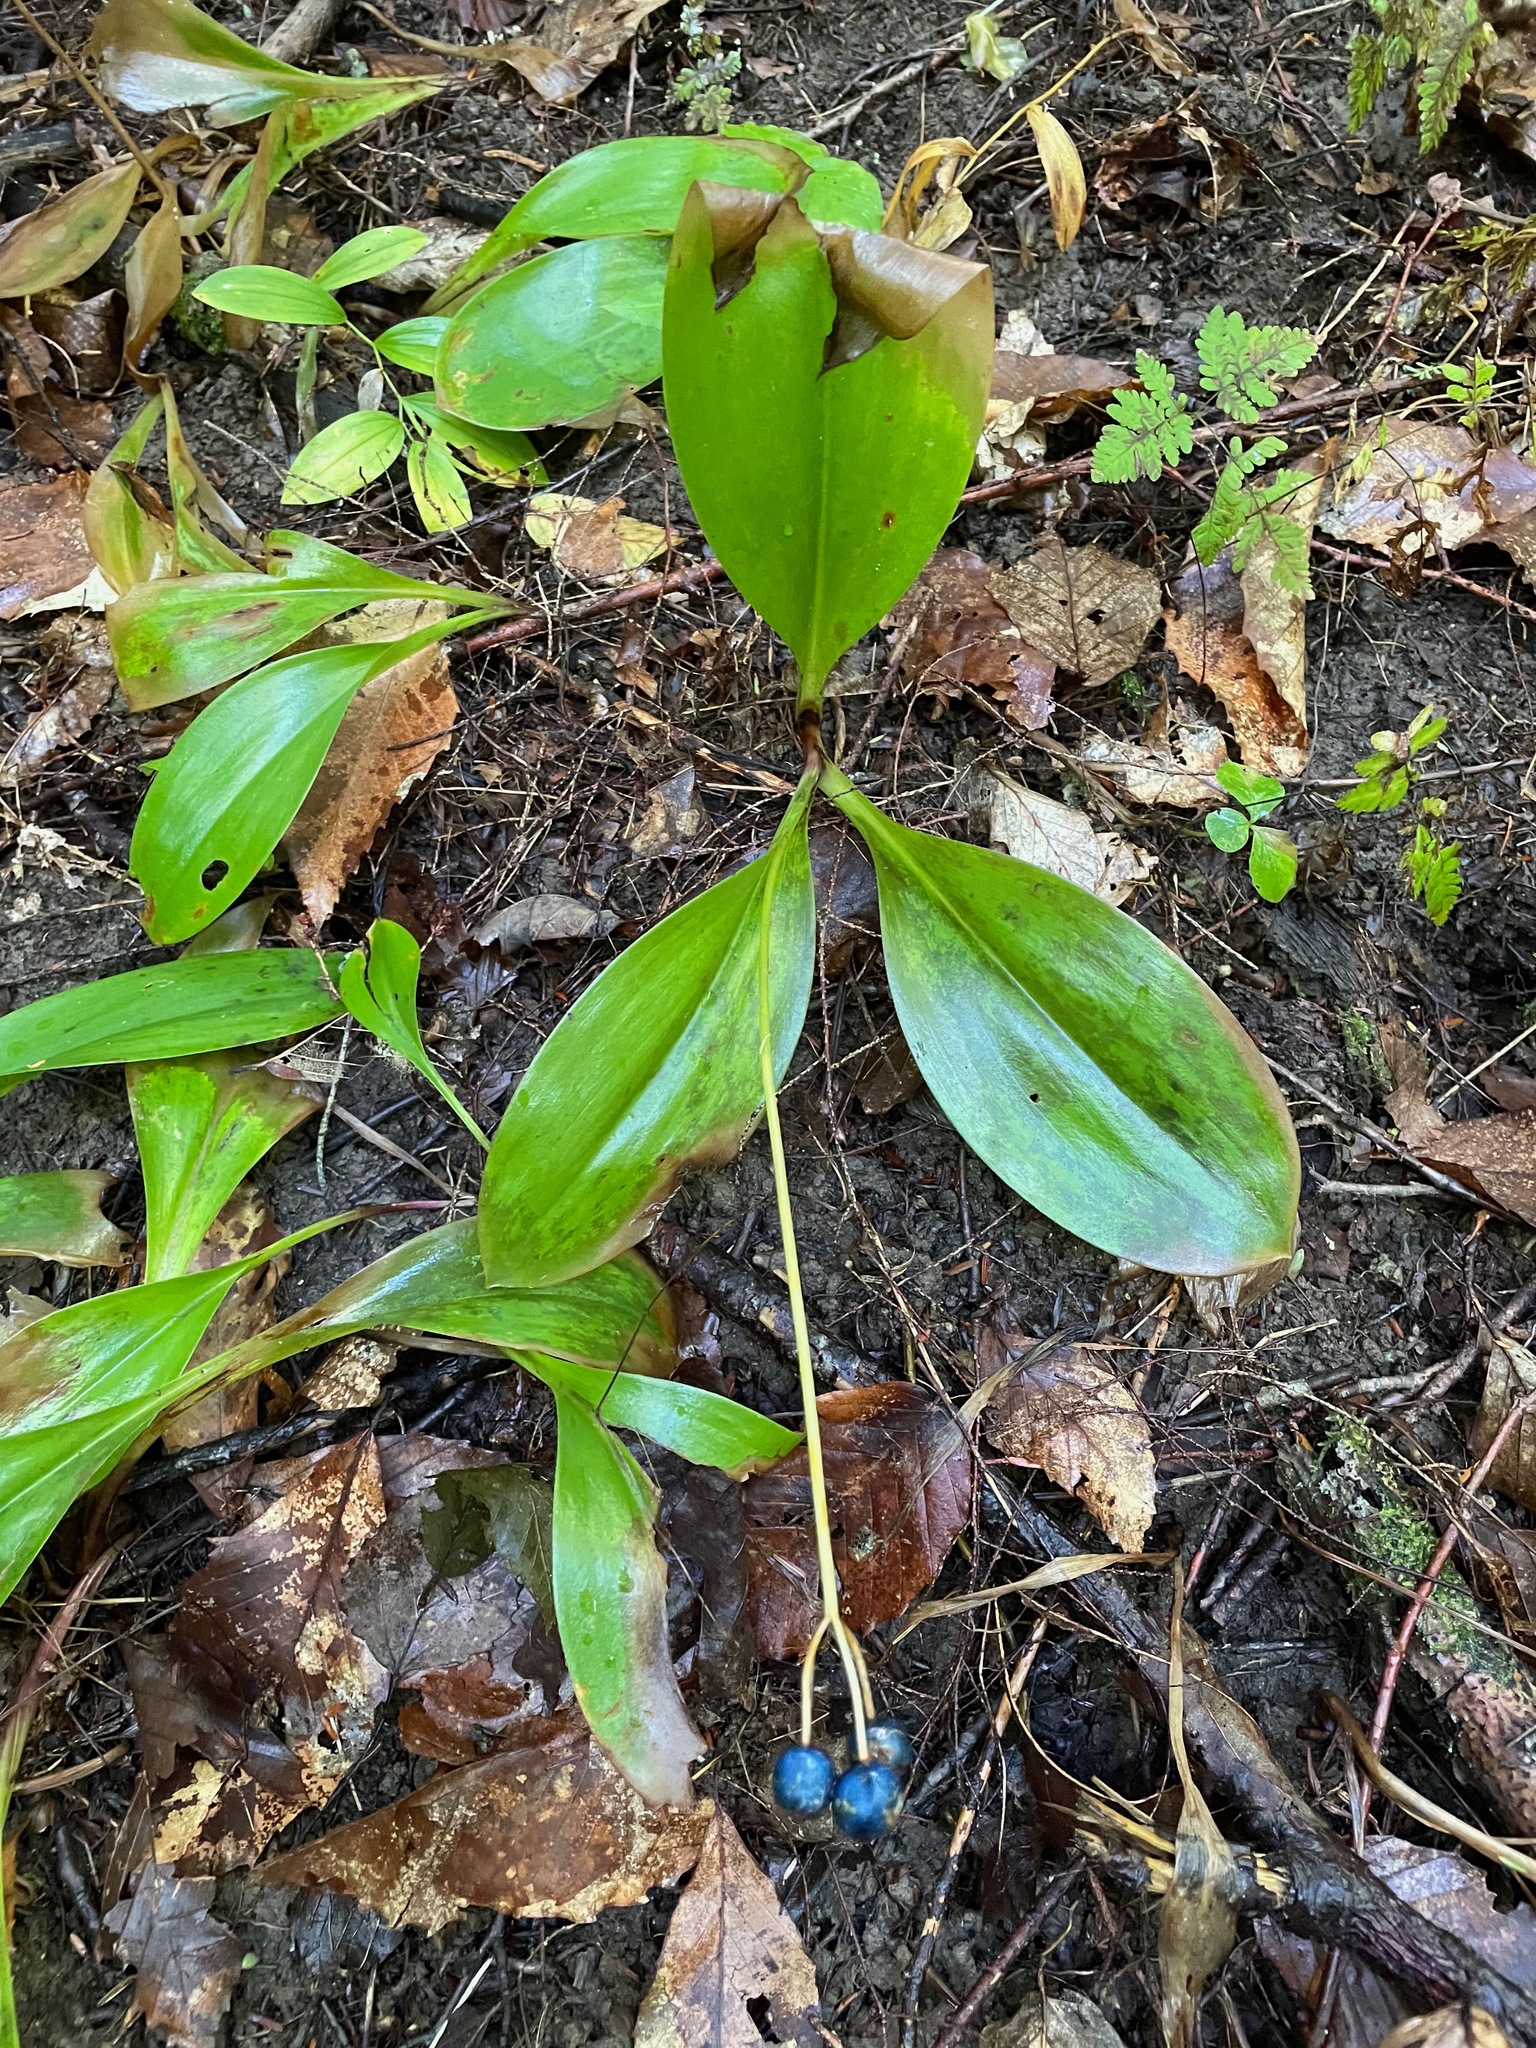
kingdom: Plantae
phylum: Tracheophyta
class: Liliopsida
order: Liliales
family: Liliaceae
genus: Clintonia
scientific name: Clintonia borealis
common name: Yellow clintonia
